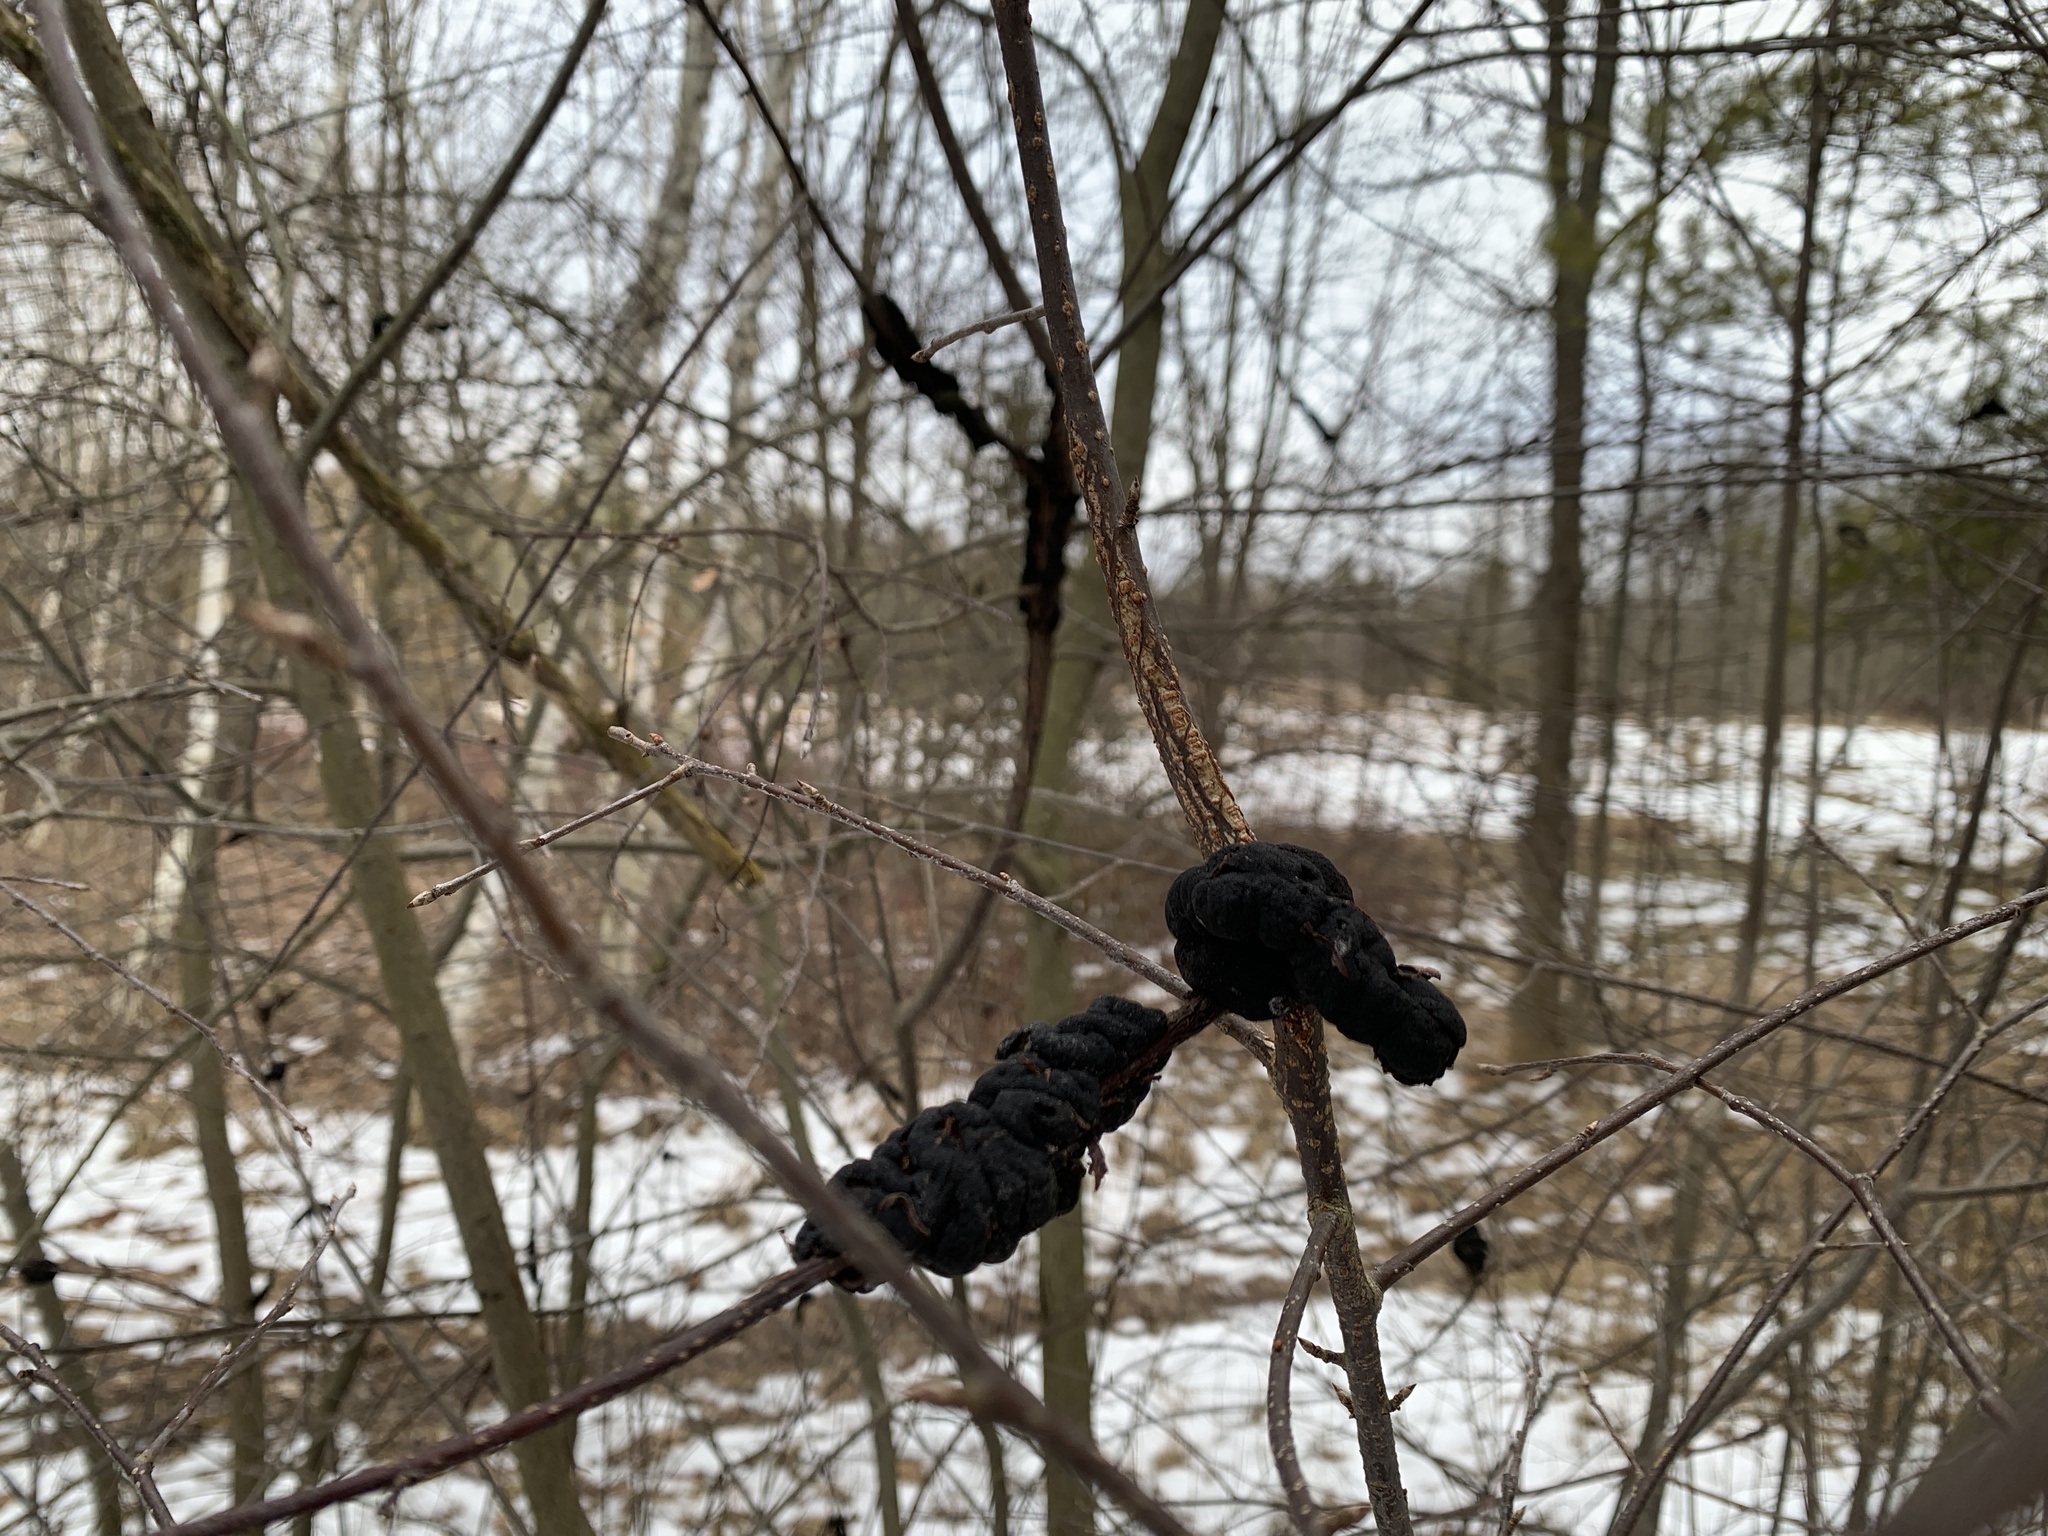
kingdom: Fungi
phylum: Ascomycota
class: Dothideomycetes
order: Venturiales
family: Venturiaceae
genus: Apiosporina
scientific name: Apiosporina morbosa
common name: Black knot
